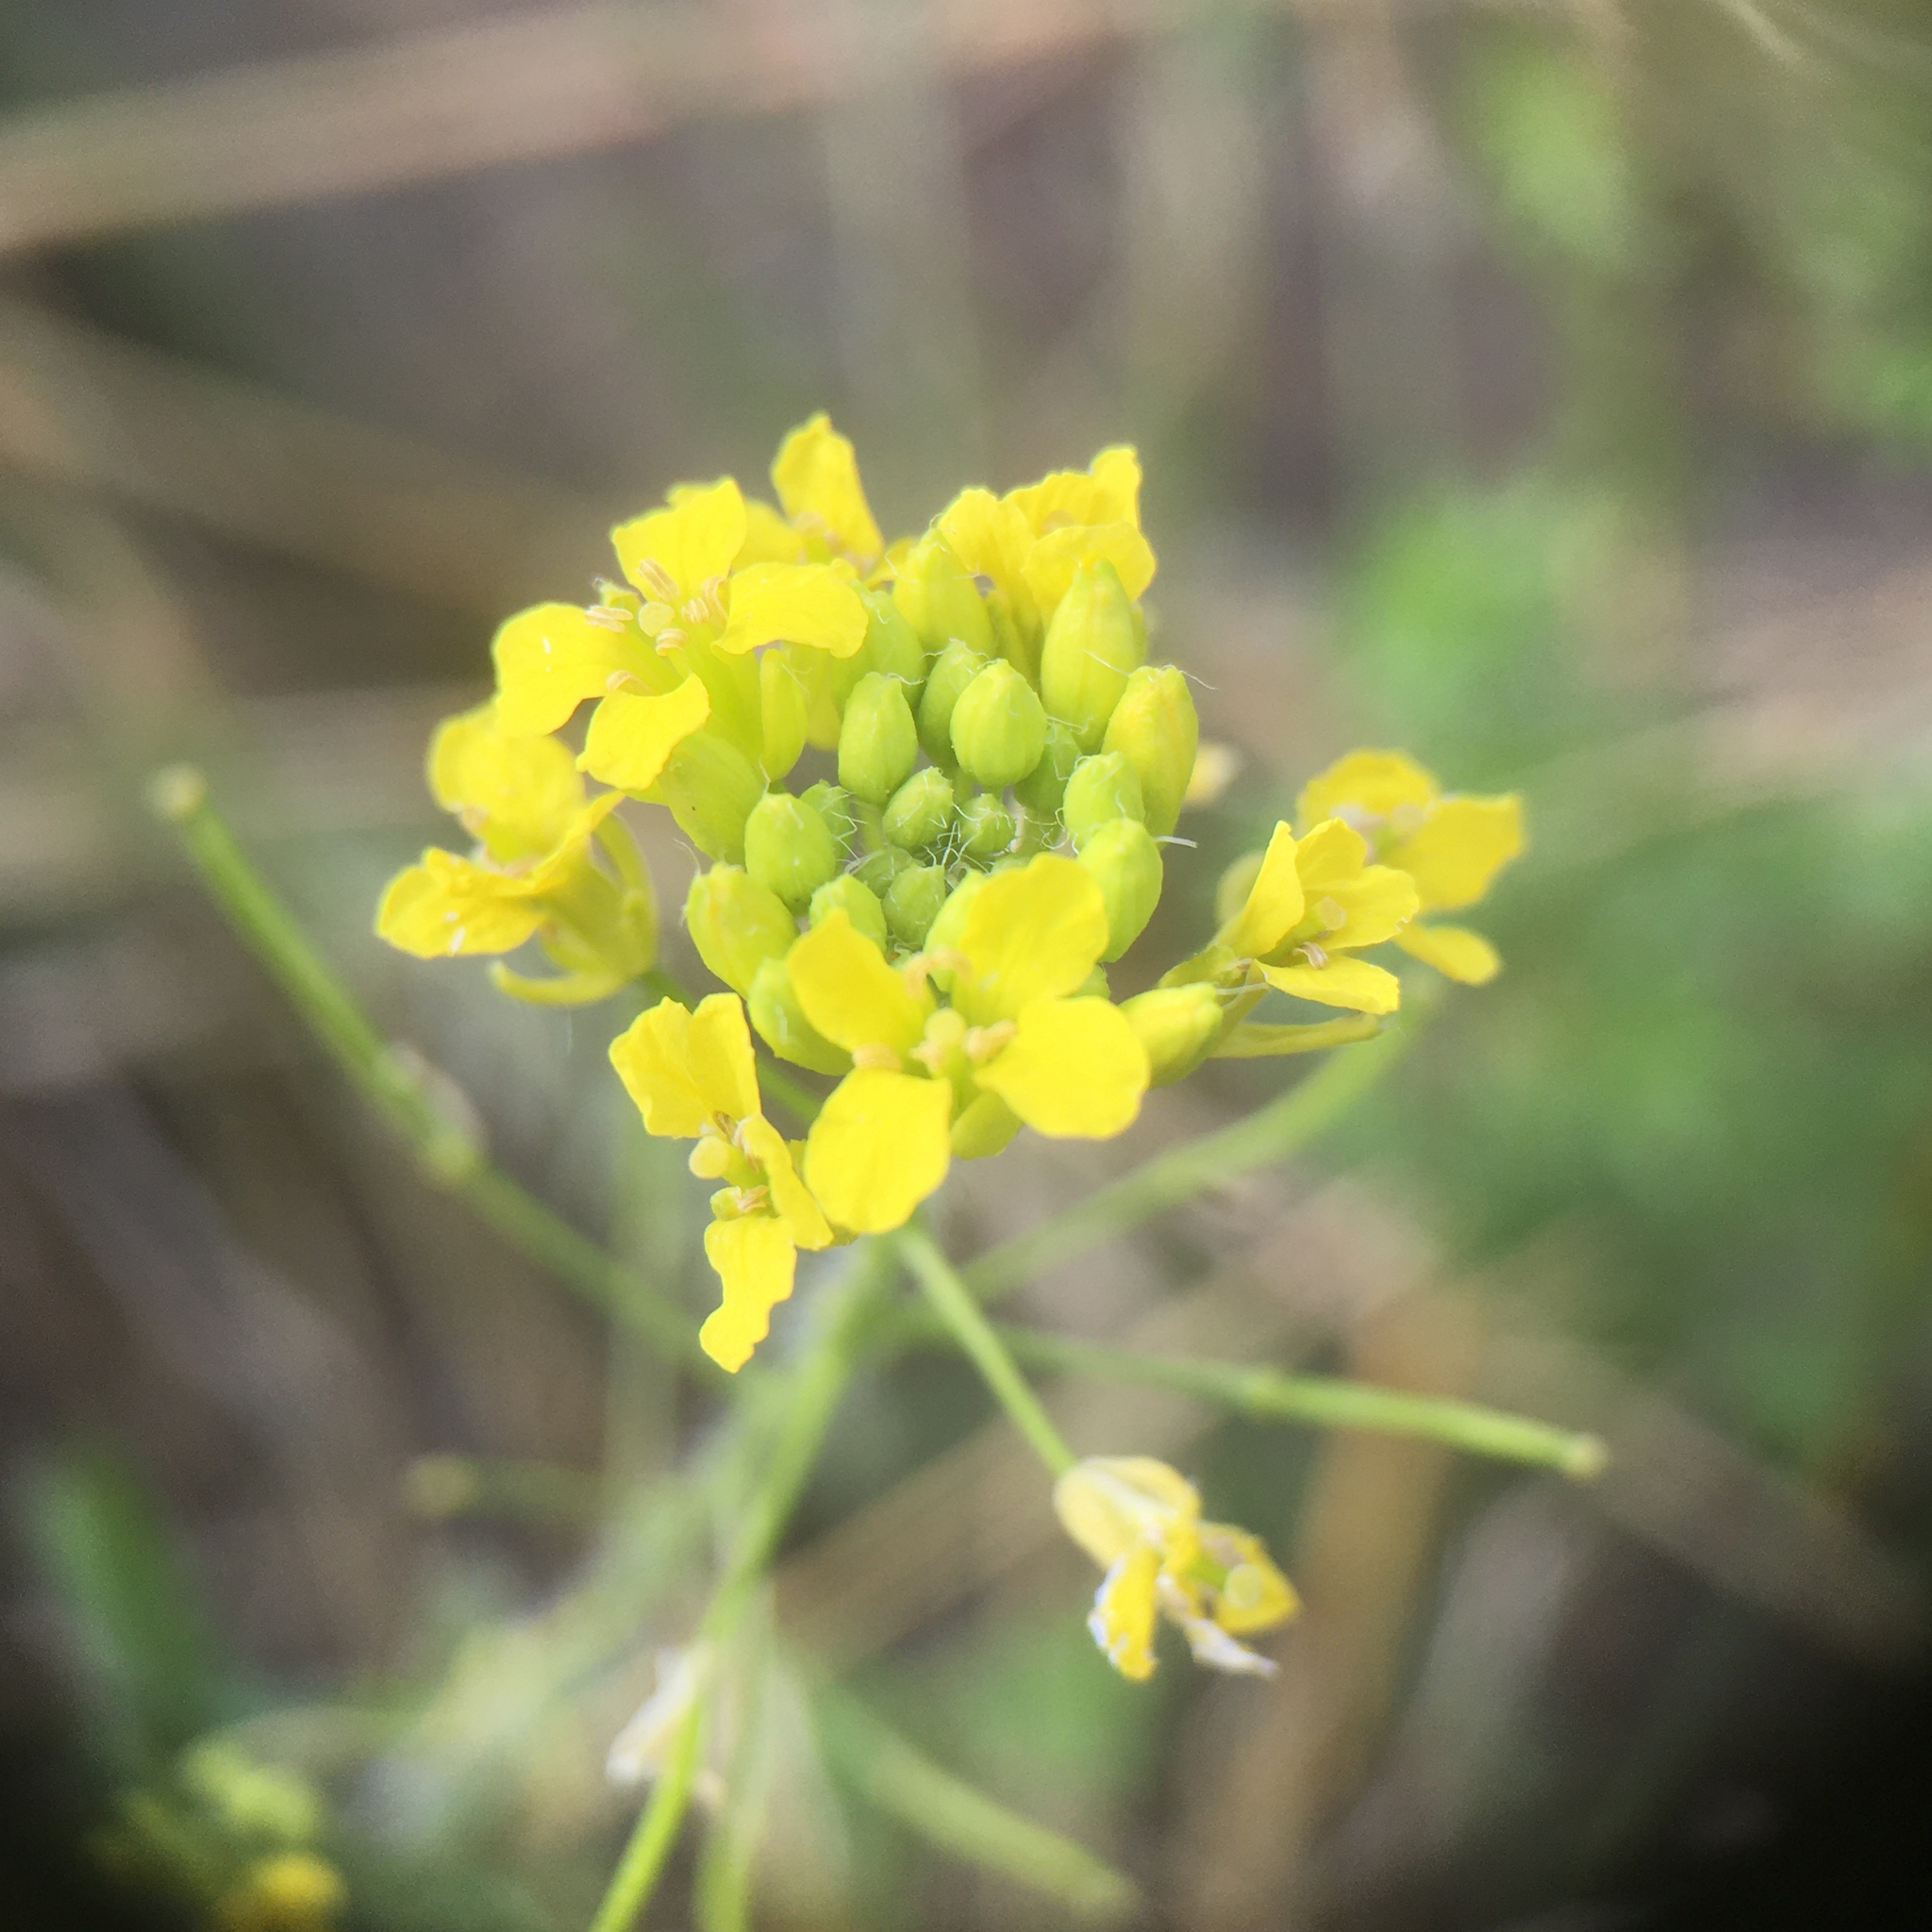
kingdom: Plantae
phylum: Tracheophyta
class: Magnoliopsida
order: Brassicales
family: Brassicaceae
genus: Sisymbrium
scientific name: Sisymbrium loeselii
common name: False london-rocket
